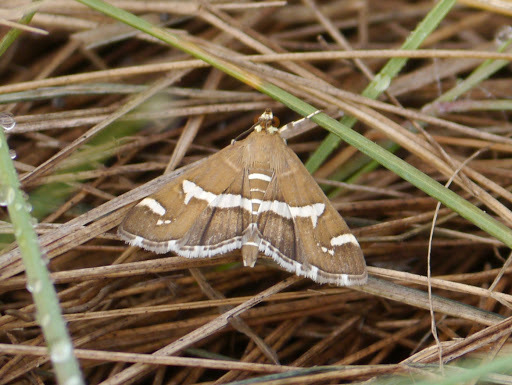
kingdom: Animalia
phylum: Arthropoda
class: Insecta
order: Lepidoptera
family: Crambidae
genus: Spoladea
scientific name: Spoladea recurvalis
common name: Beet webworm moth
